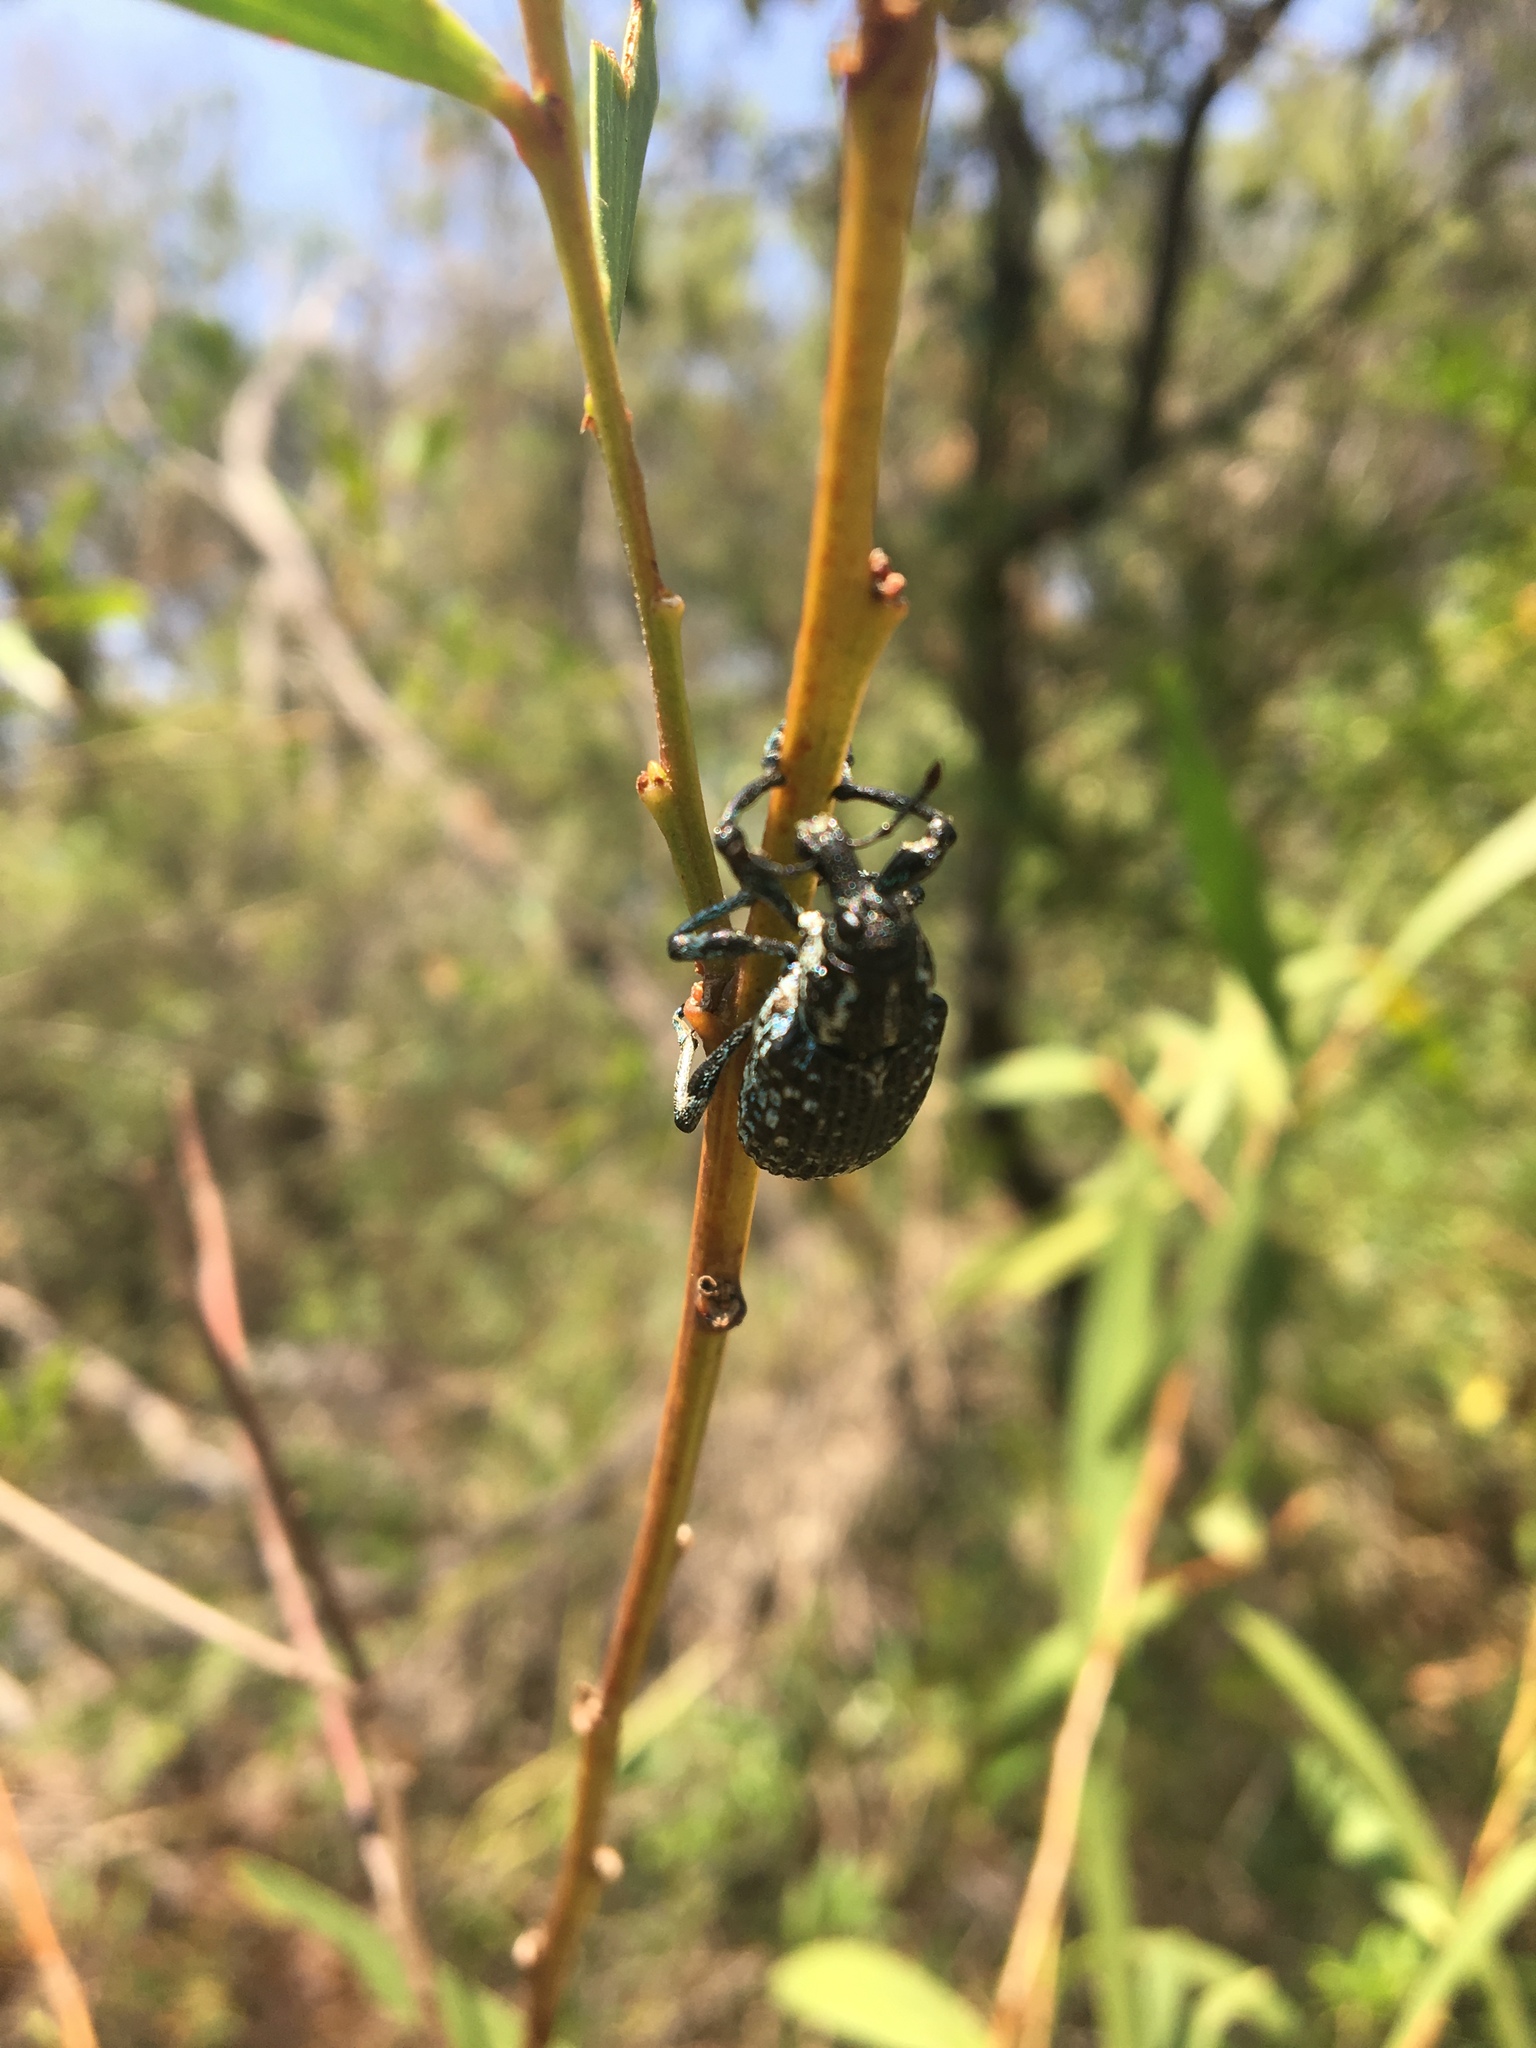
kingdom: Animalia
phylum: Arthropoda
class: Insecta
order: Coleoptera
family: Curculionidae
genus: Chrysolopus
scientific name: Chrysolopus spectabilis
